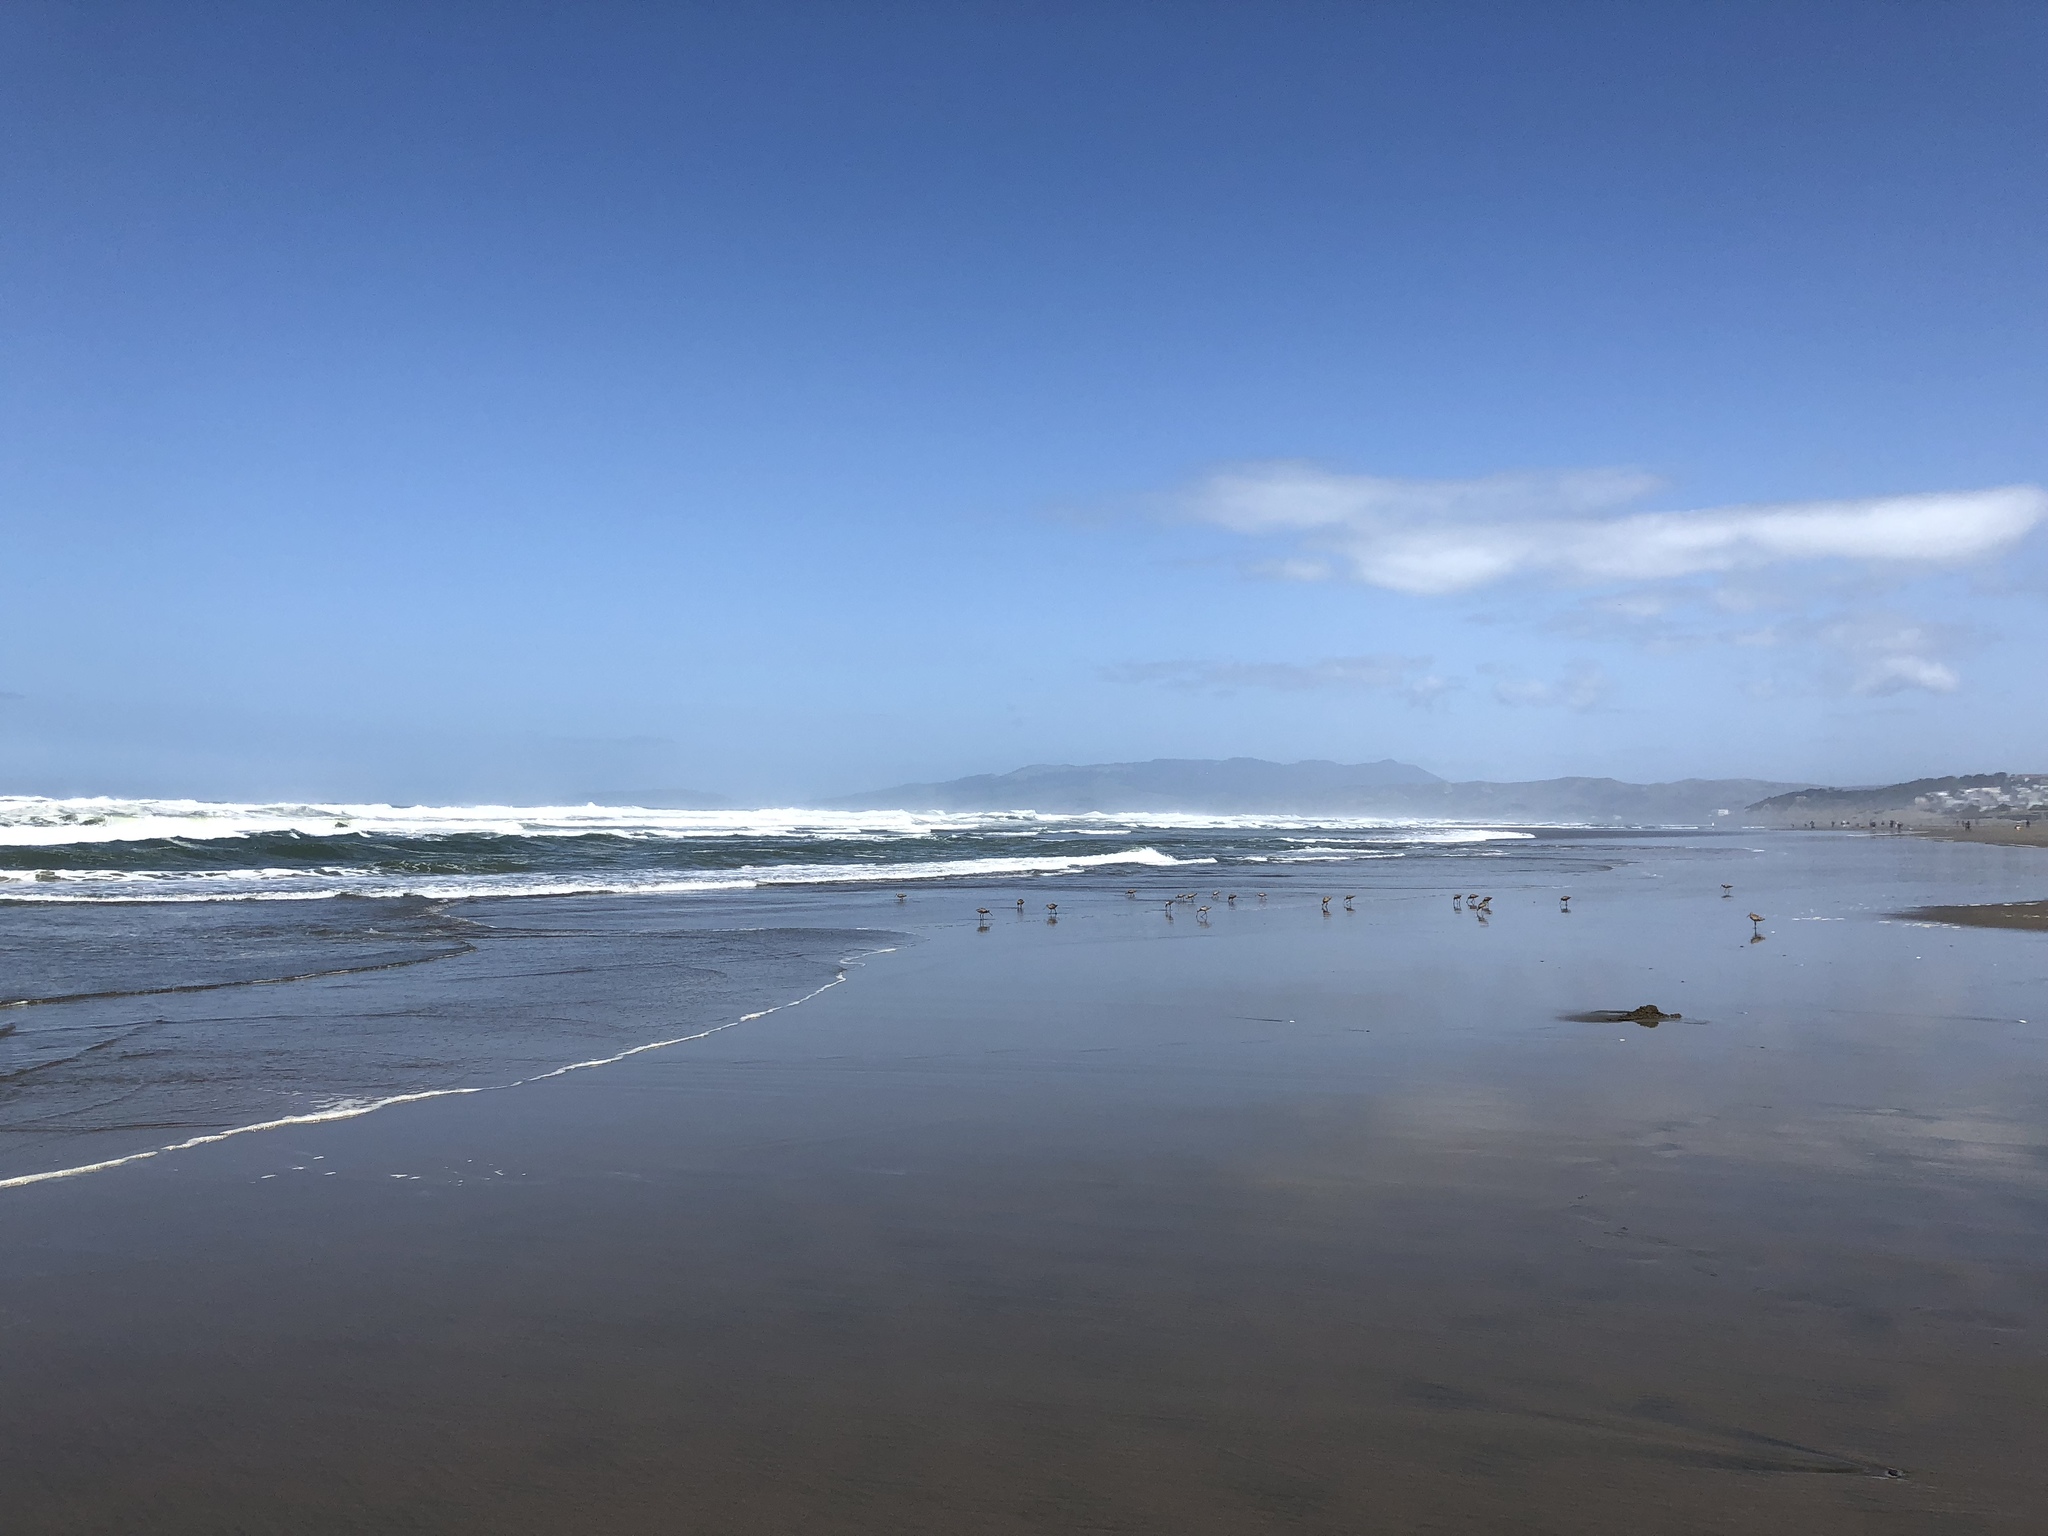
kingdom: Animalia
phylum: Chordata
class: Aves
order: Charadriiformes
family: Scolopacidae
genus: Limosa
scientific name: Limosa fedoa
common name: Marbled godwit
